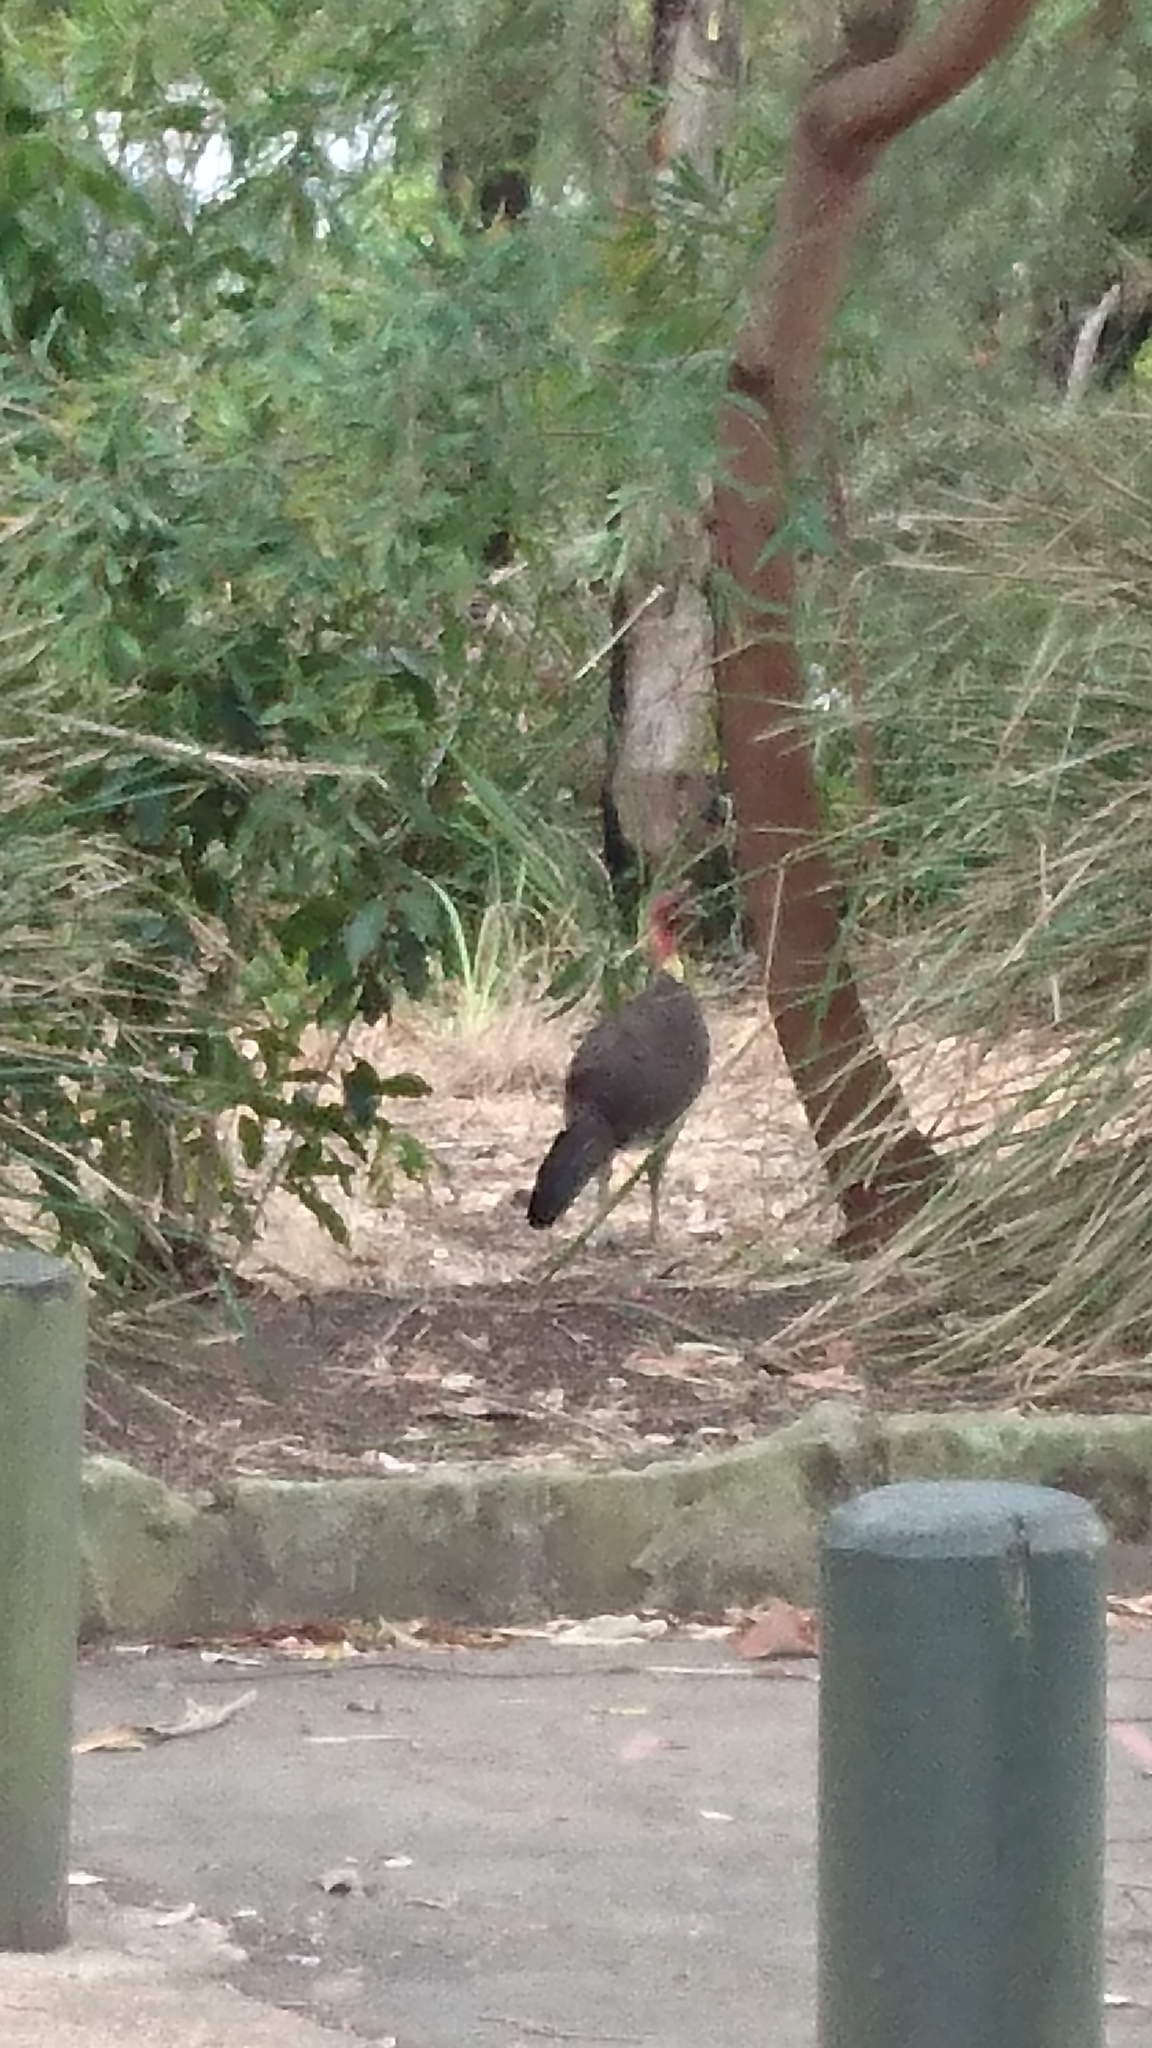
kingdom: Animalia
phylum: Chordata
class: Aves
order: Galliformes
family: Megapodiidae
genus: Alectura
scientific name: Alectura lathami
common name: Australian brushturkey
